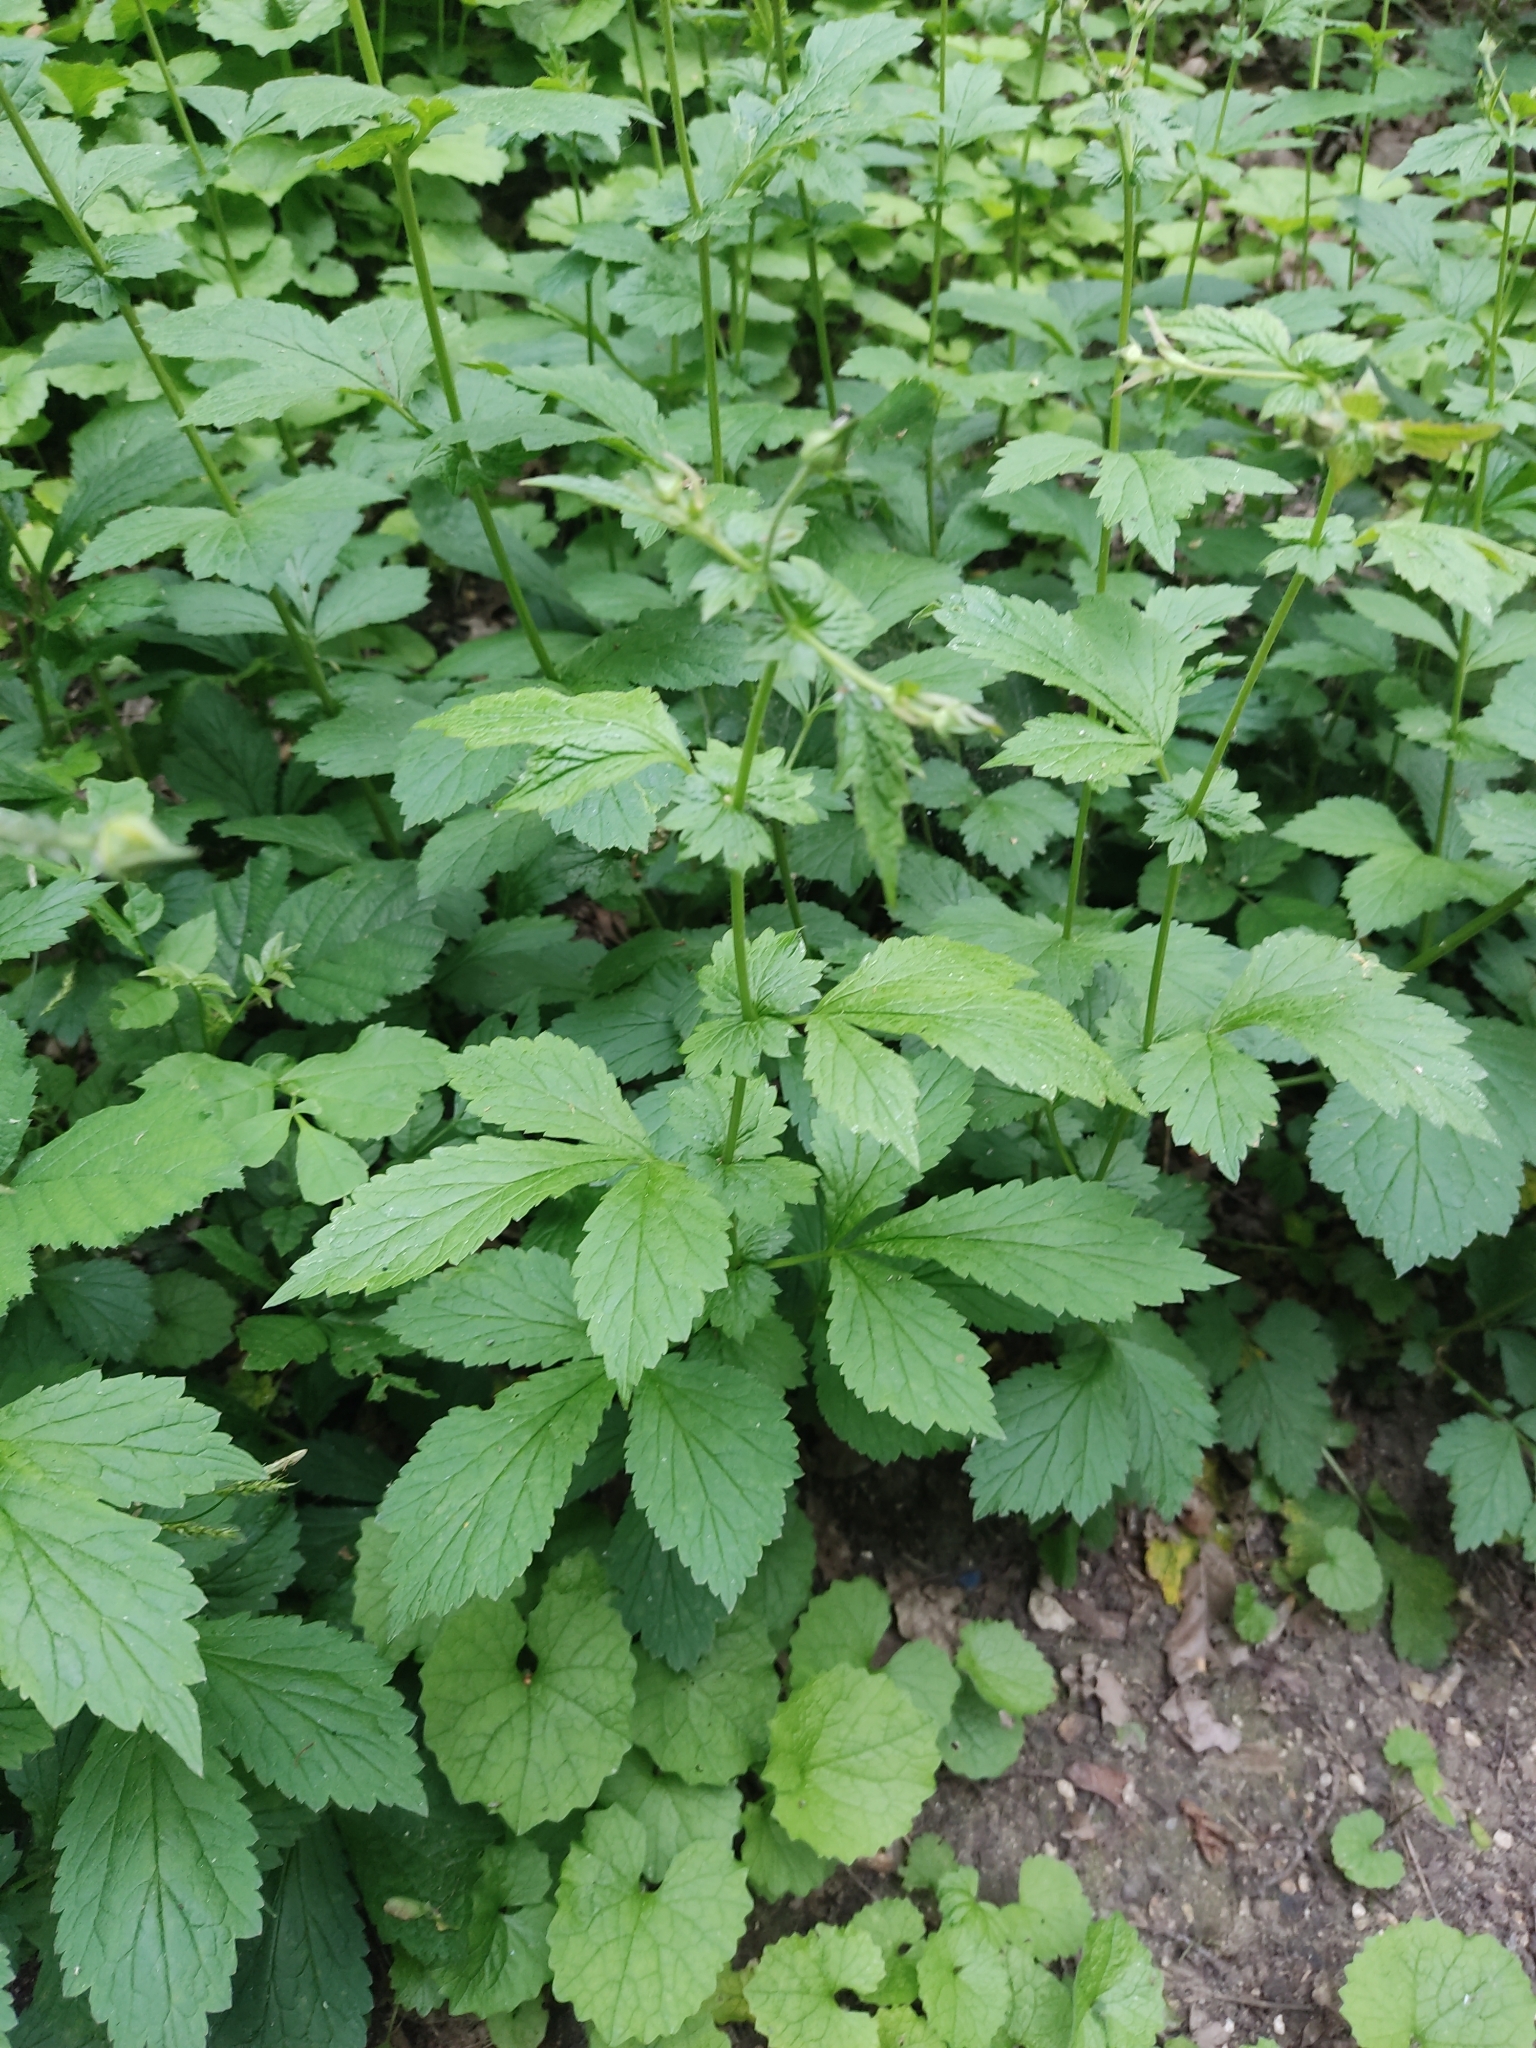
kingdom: Plantae
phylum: Tracheophyta
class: Magnoliopsida
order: Rosales
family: Rosaceae
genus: Geum
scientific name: Geum urbanum
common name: Wood avens
